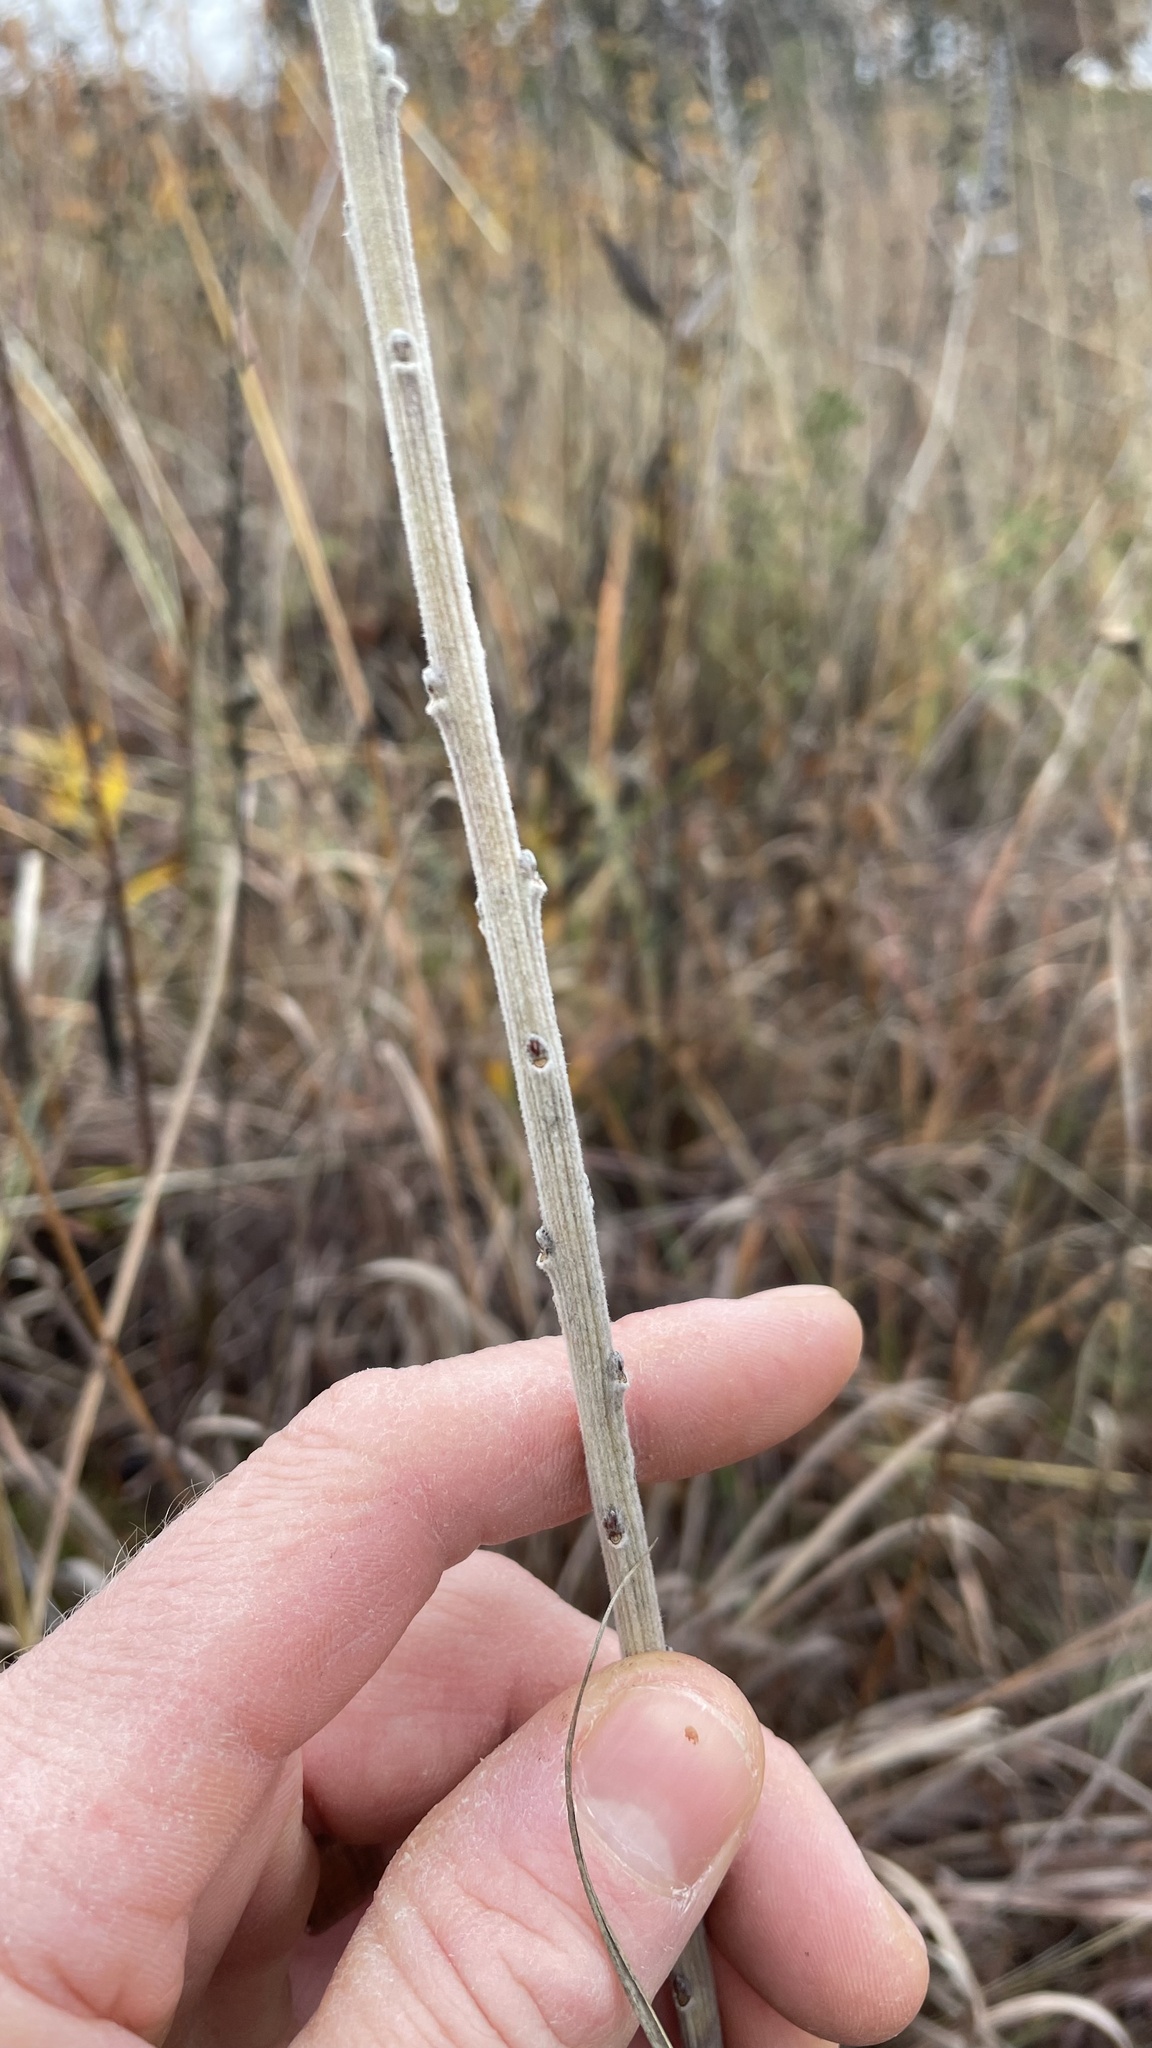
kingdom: Plantae
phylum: Tracheophyta
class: Magnoliopsida
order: Fabales
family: Fabaceae
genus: Amorpha
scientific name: Amorpha canescens
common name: Leadplant
